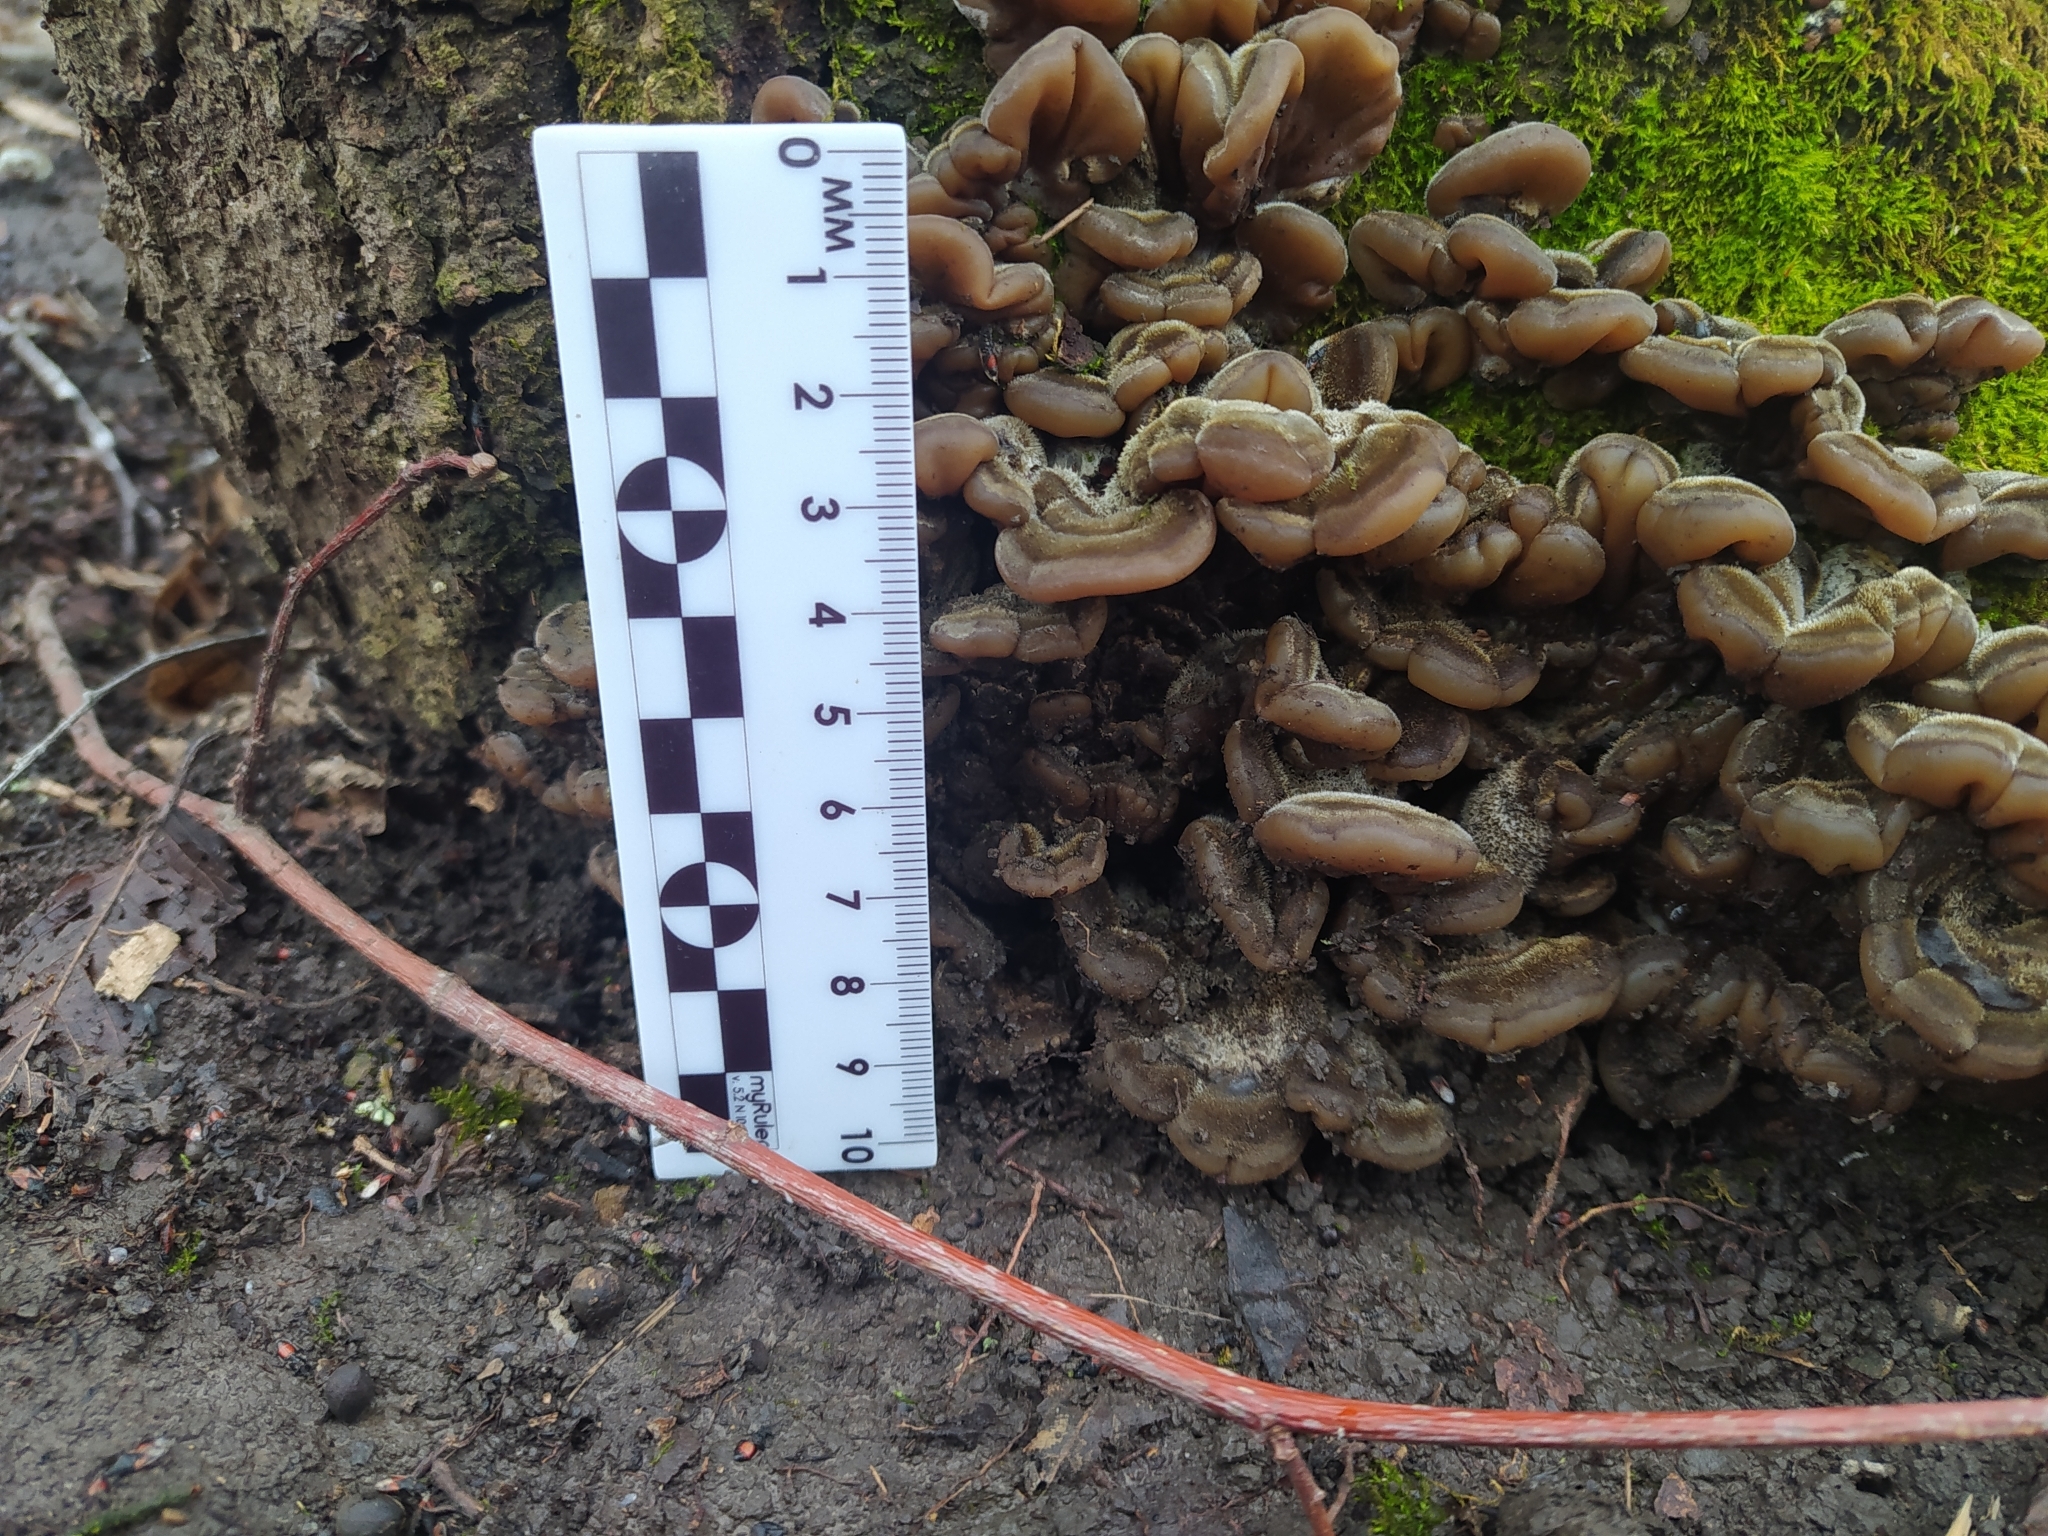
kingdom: Fungi
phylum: Basidiomycota
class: Agaricomycetes
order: Auriculariales
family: Auriculariaceae
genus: Auricularia
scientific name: Auricularia mesenterica
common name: Tripe fungus
